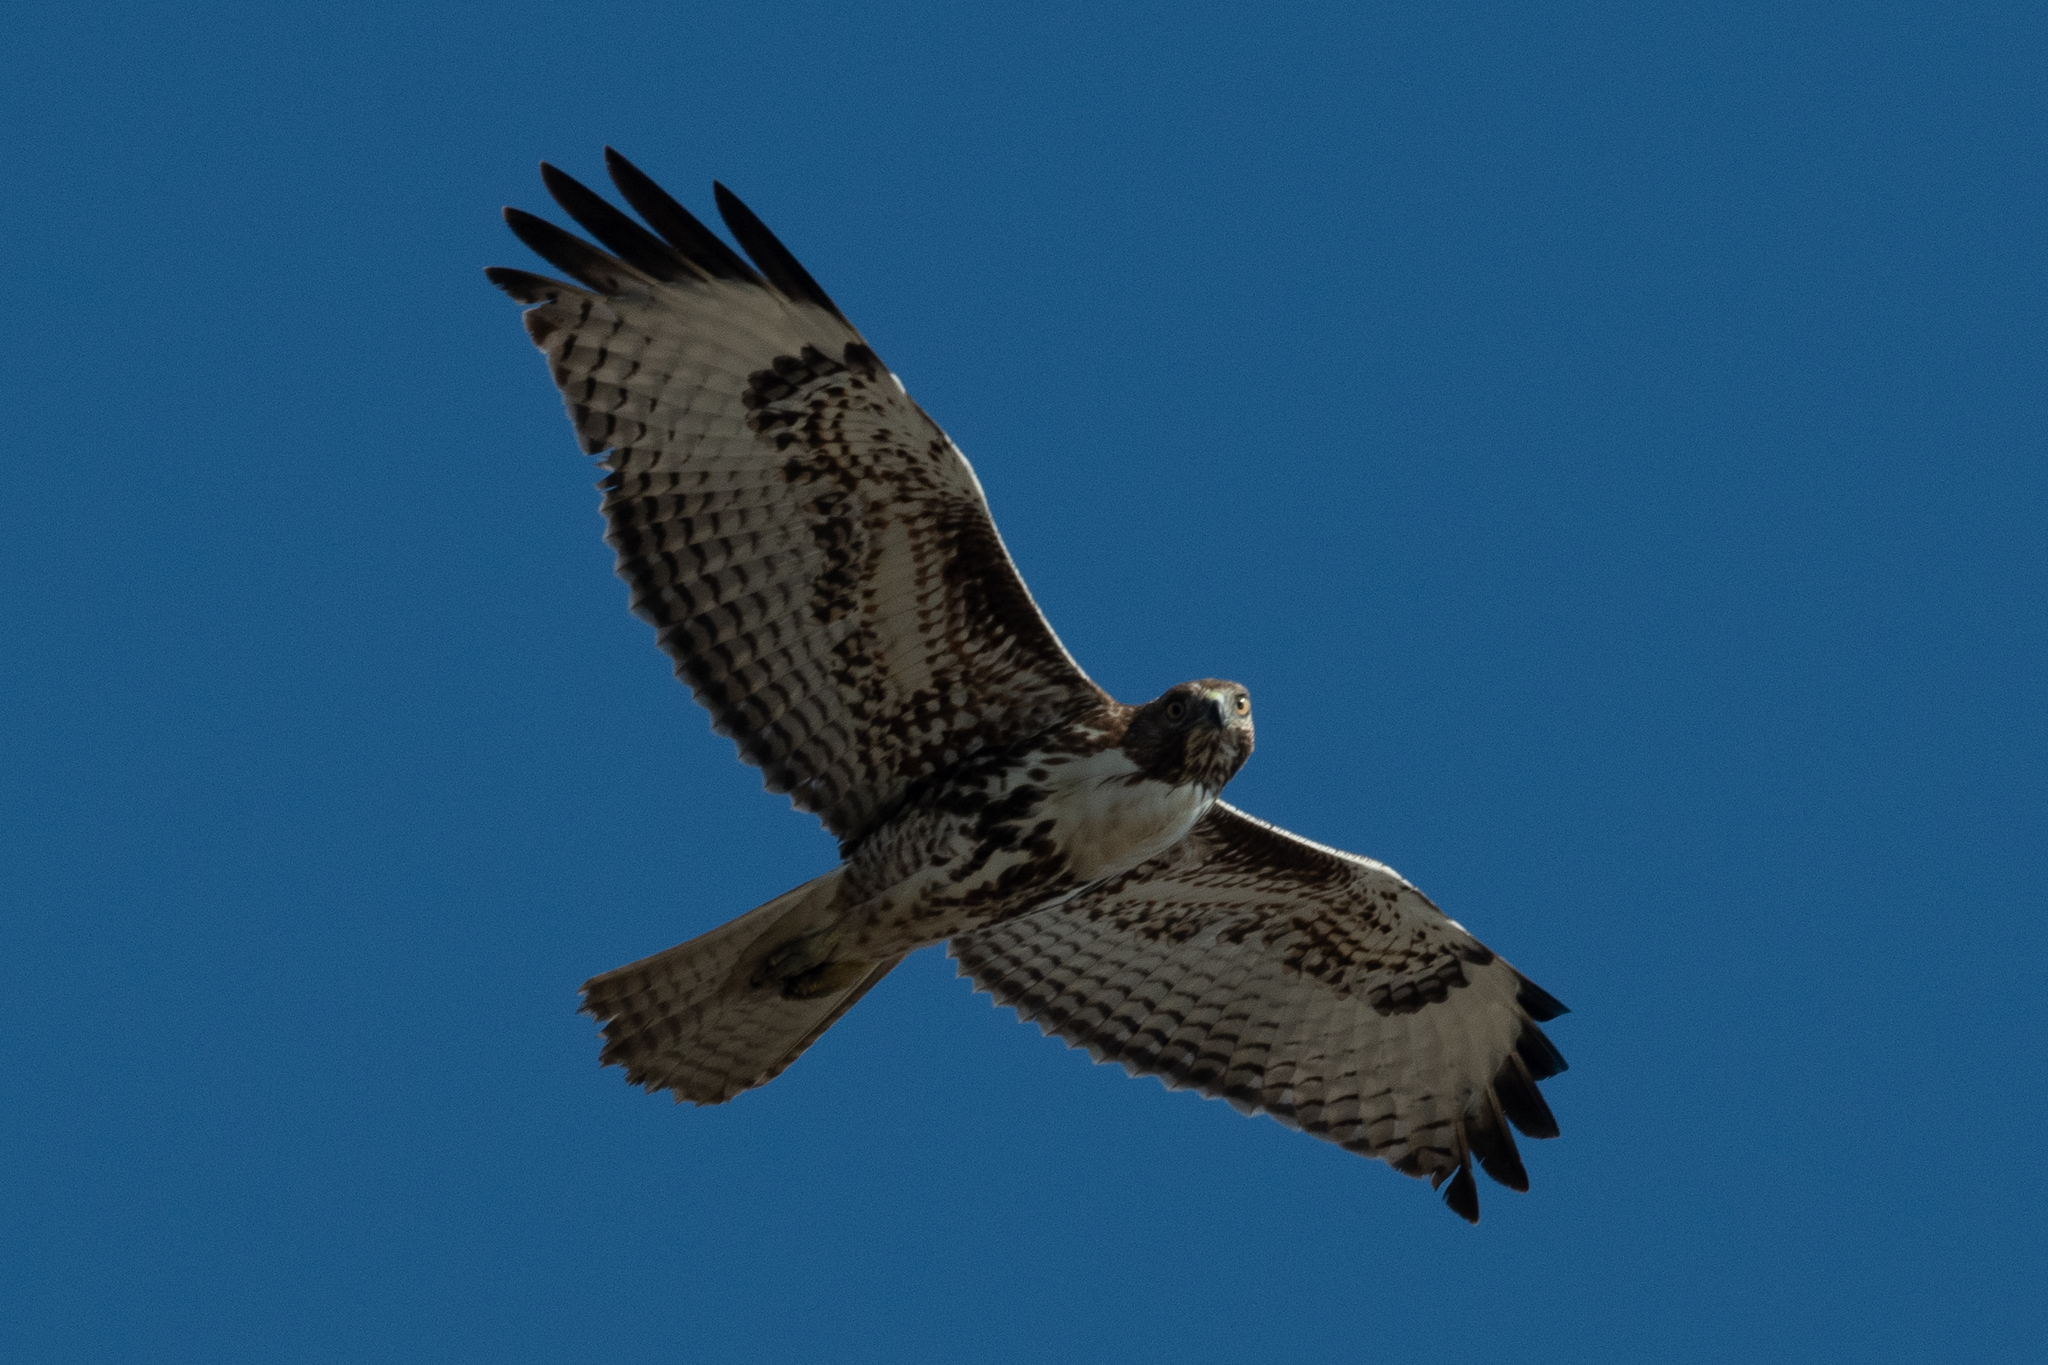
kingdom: Animalia
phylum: Chordata
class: Aves
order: Accipitriformes
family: Accipitridae
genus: Buteo
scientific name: Buteo jamaicensis
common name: Red-tailed hawk
